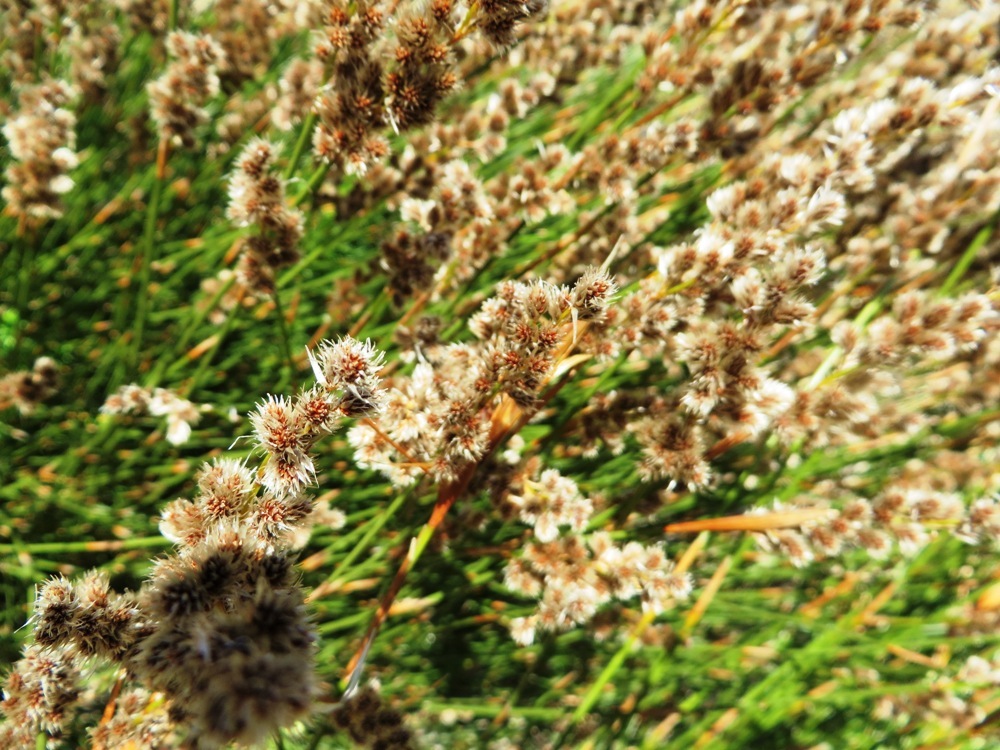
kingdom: Plantae
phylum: Tracheophyta
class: Liliopsida
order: Poales
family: Restionaceae
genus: Hypodiscus
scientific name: Hypodiscus argenteus
